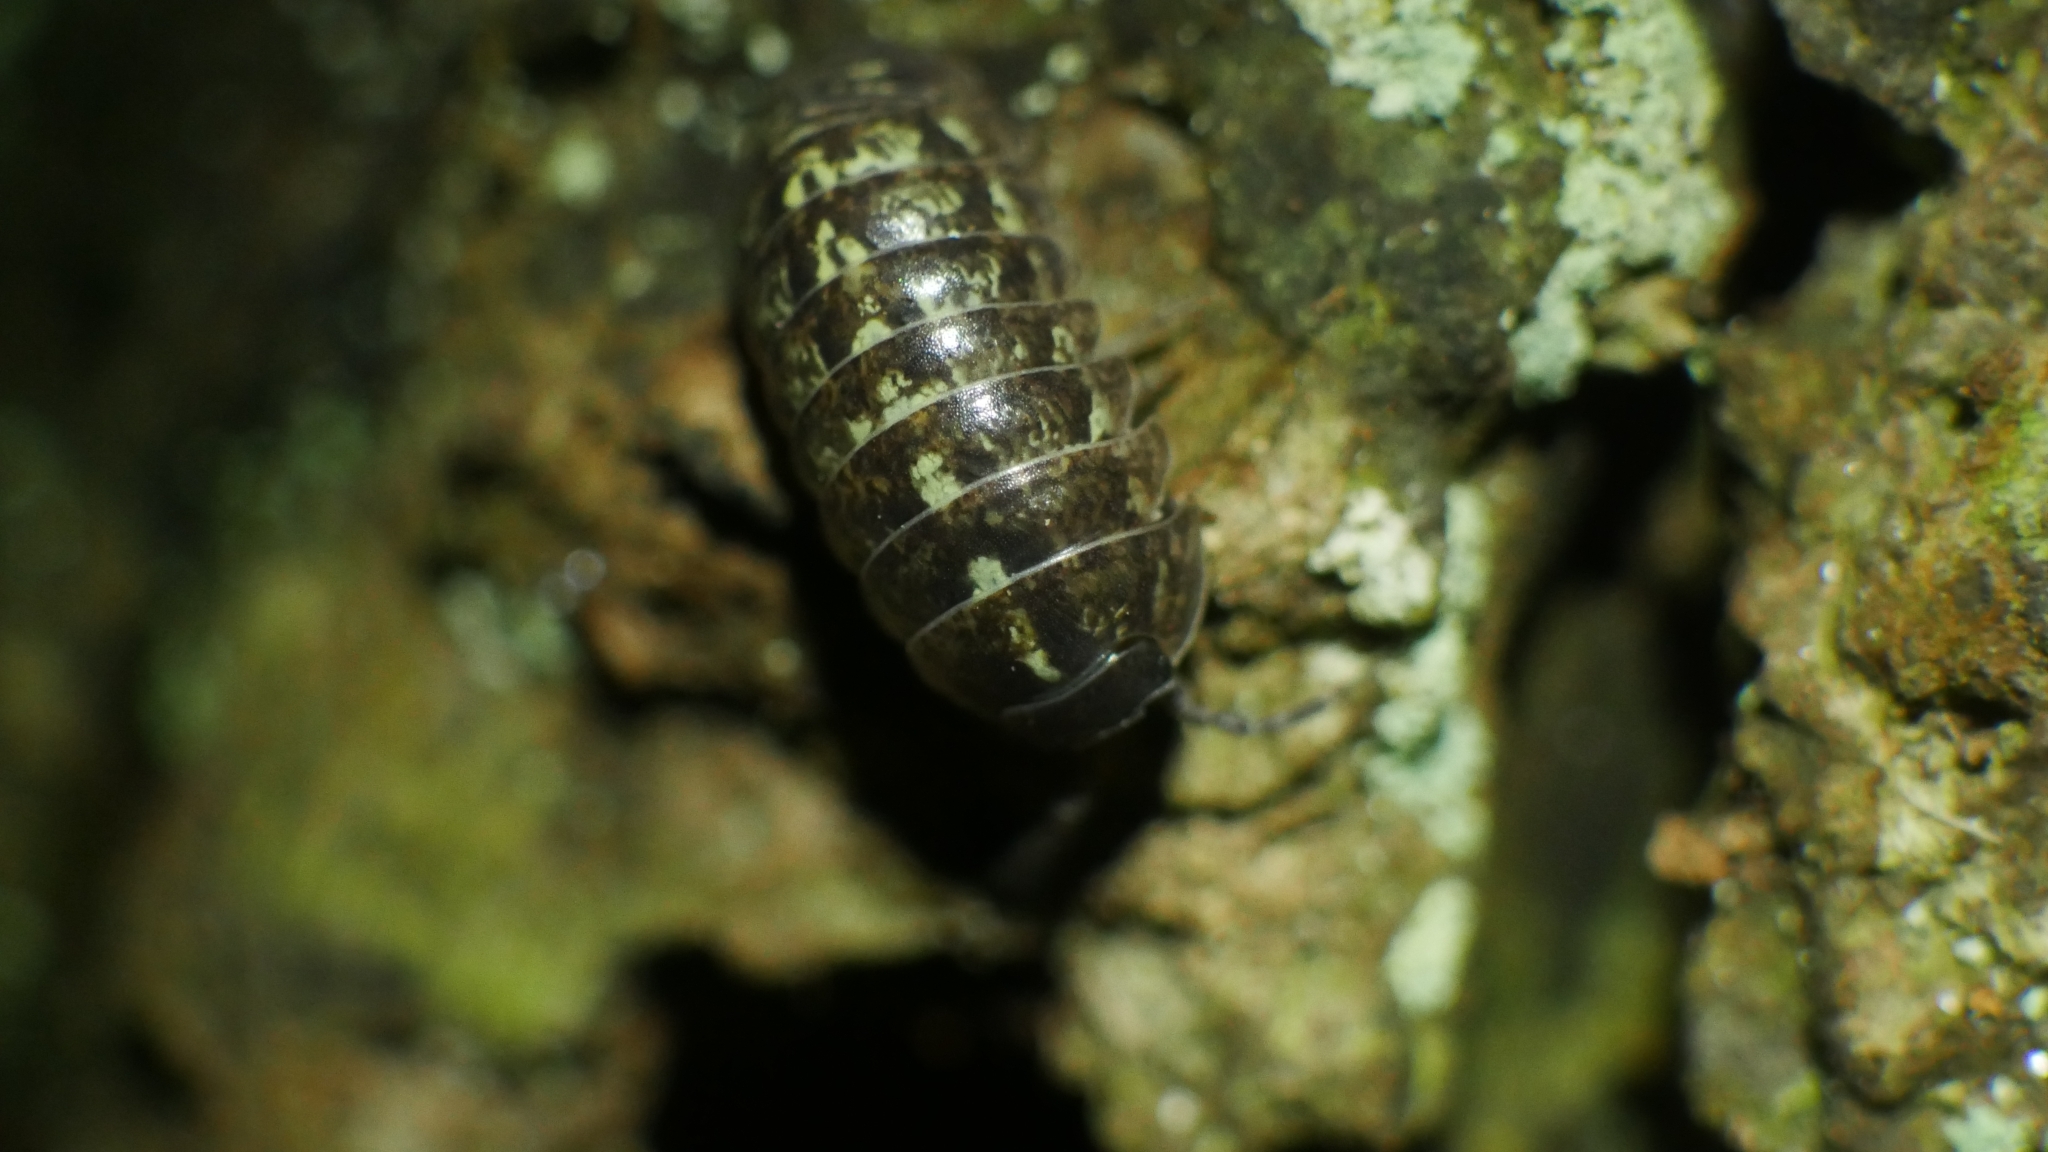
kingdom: Animalia
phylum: Arthropoda
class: Malacostraca
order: Isopoda
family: Armadillidiidae
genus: Armadillidium
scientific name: Armadillidium vulgare
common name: Common pill woodlouse
